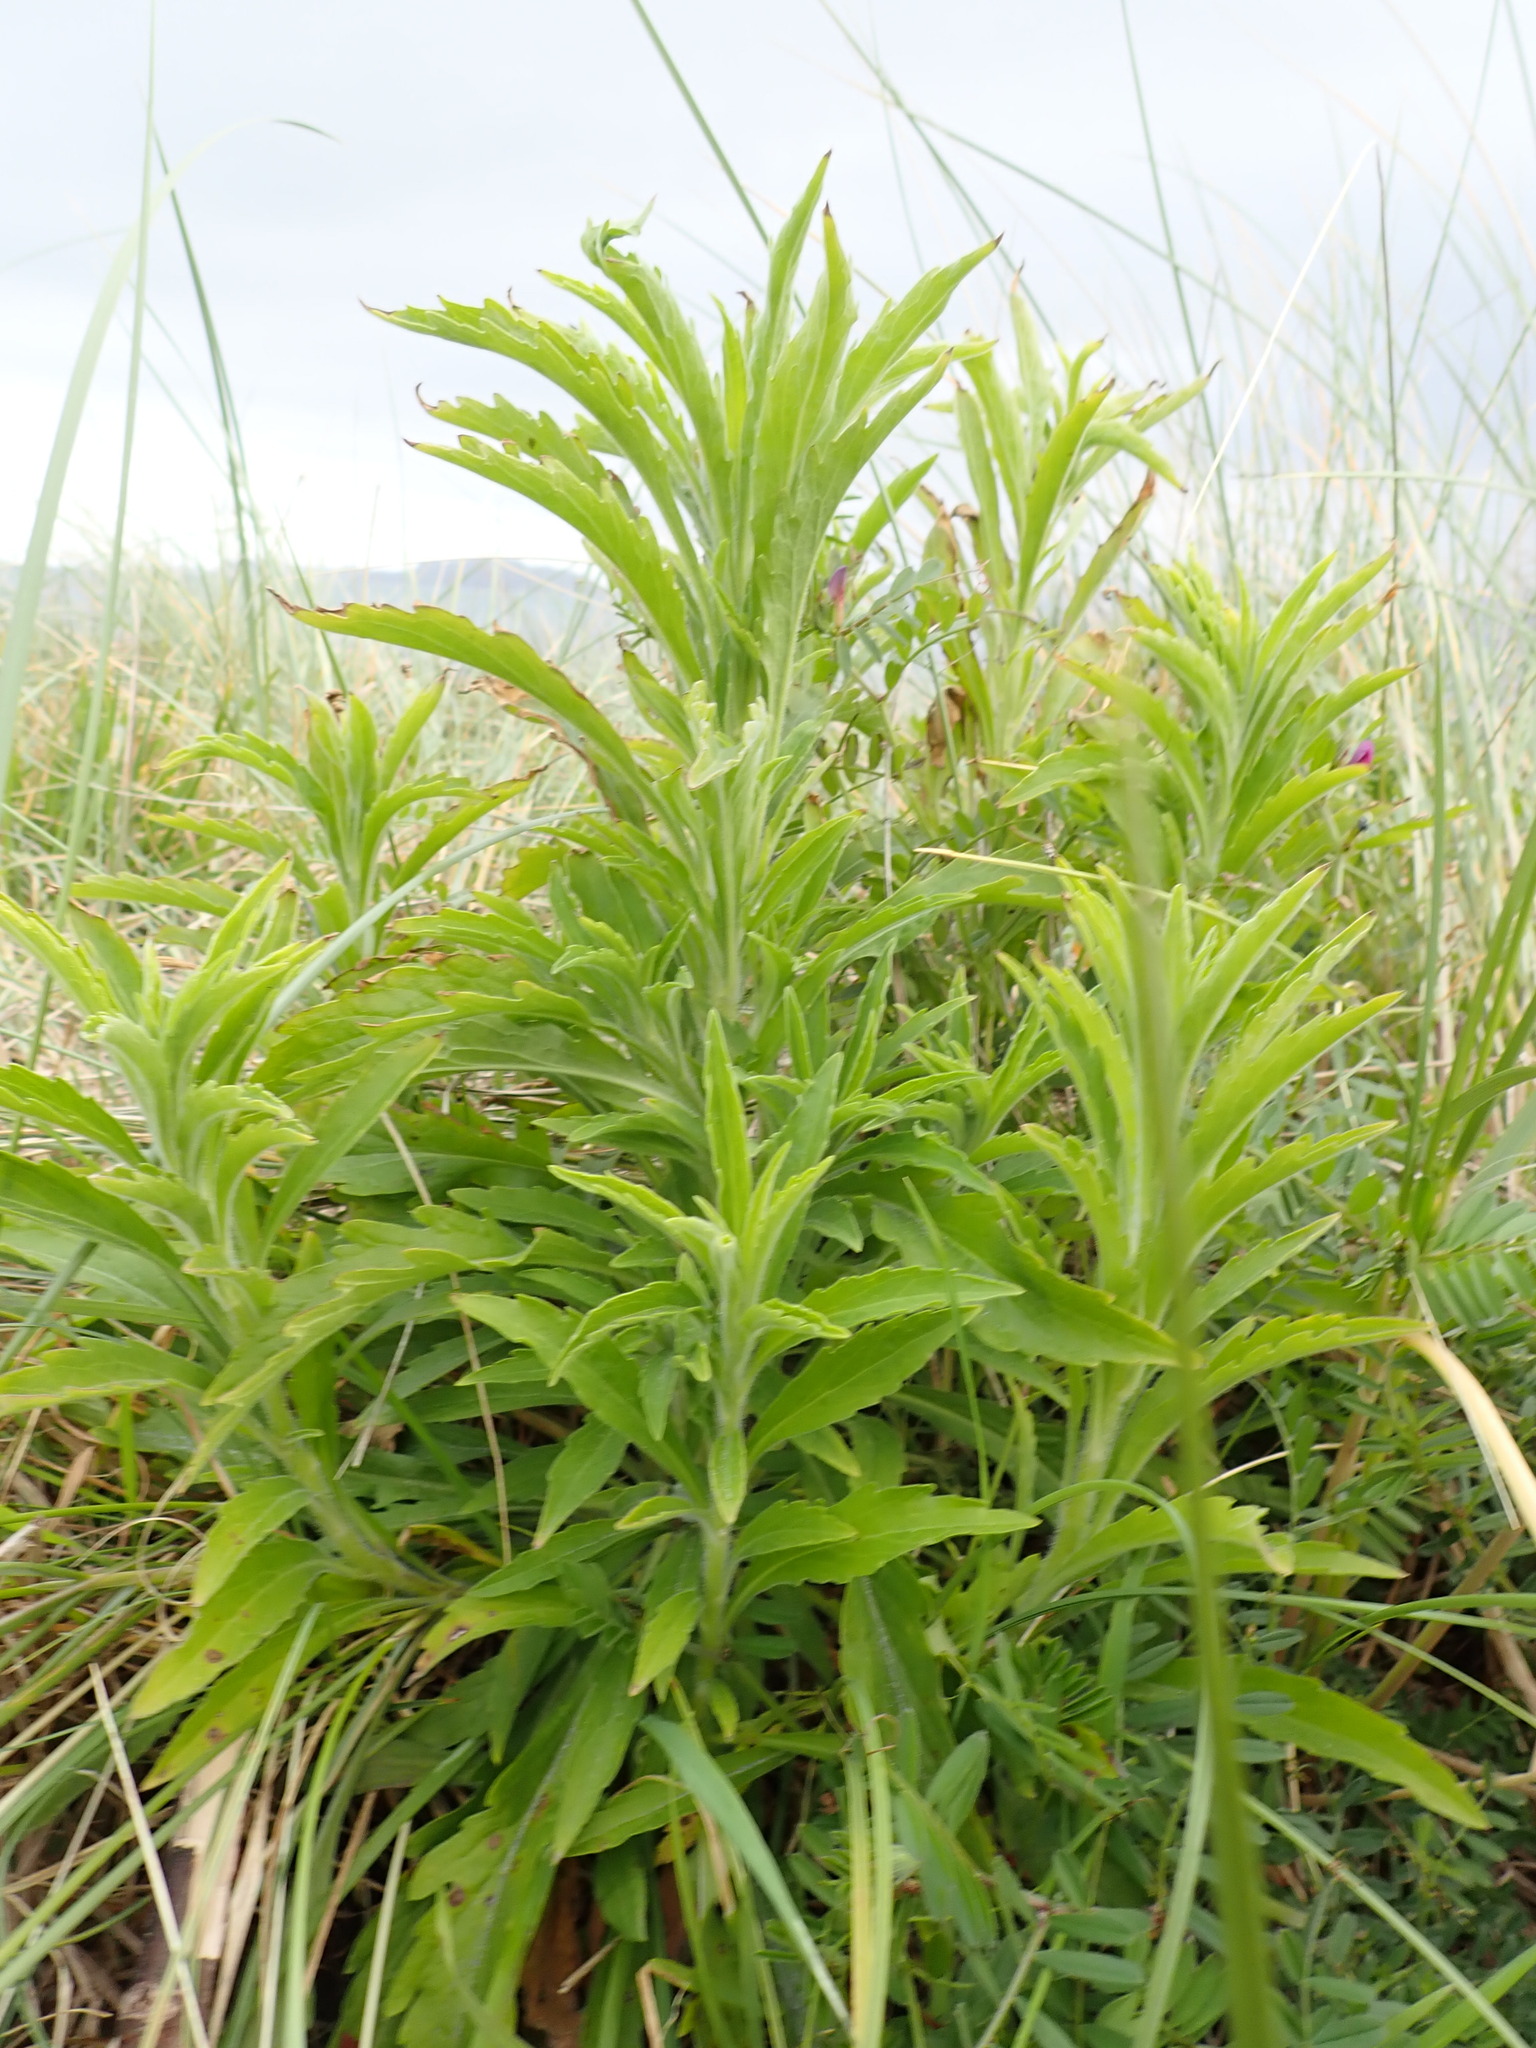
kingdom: Plantae
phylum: Tracheophyta
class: Magnoliopsida
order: Asterales
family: Asteraceae
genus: Erigeron
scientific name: Erigeron sumatrensis
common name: Daisy
